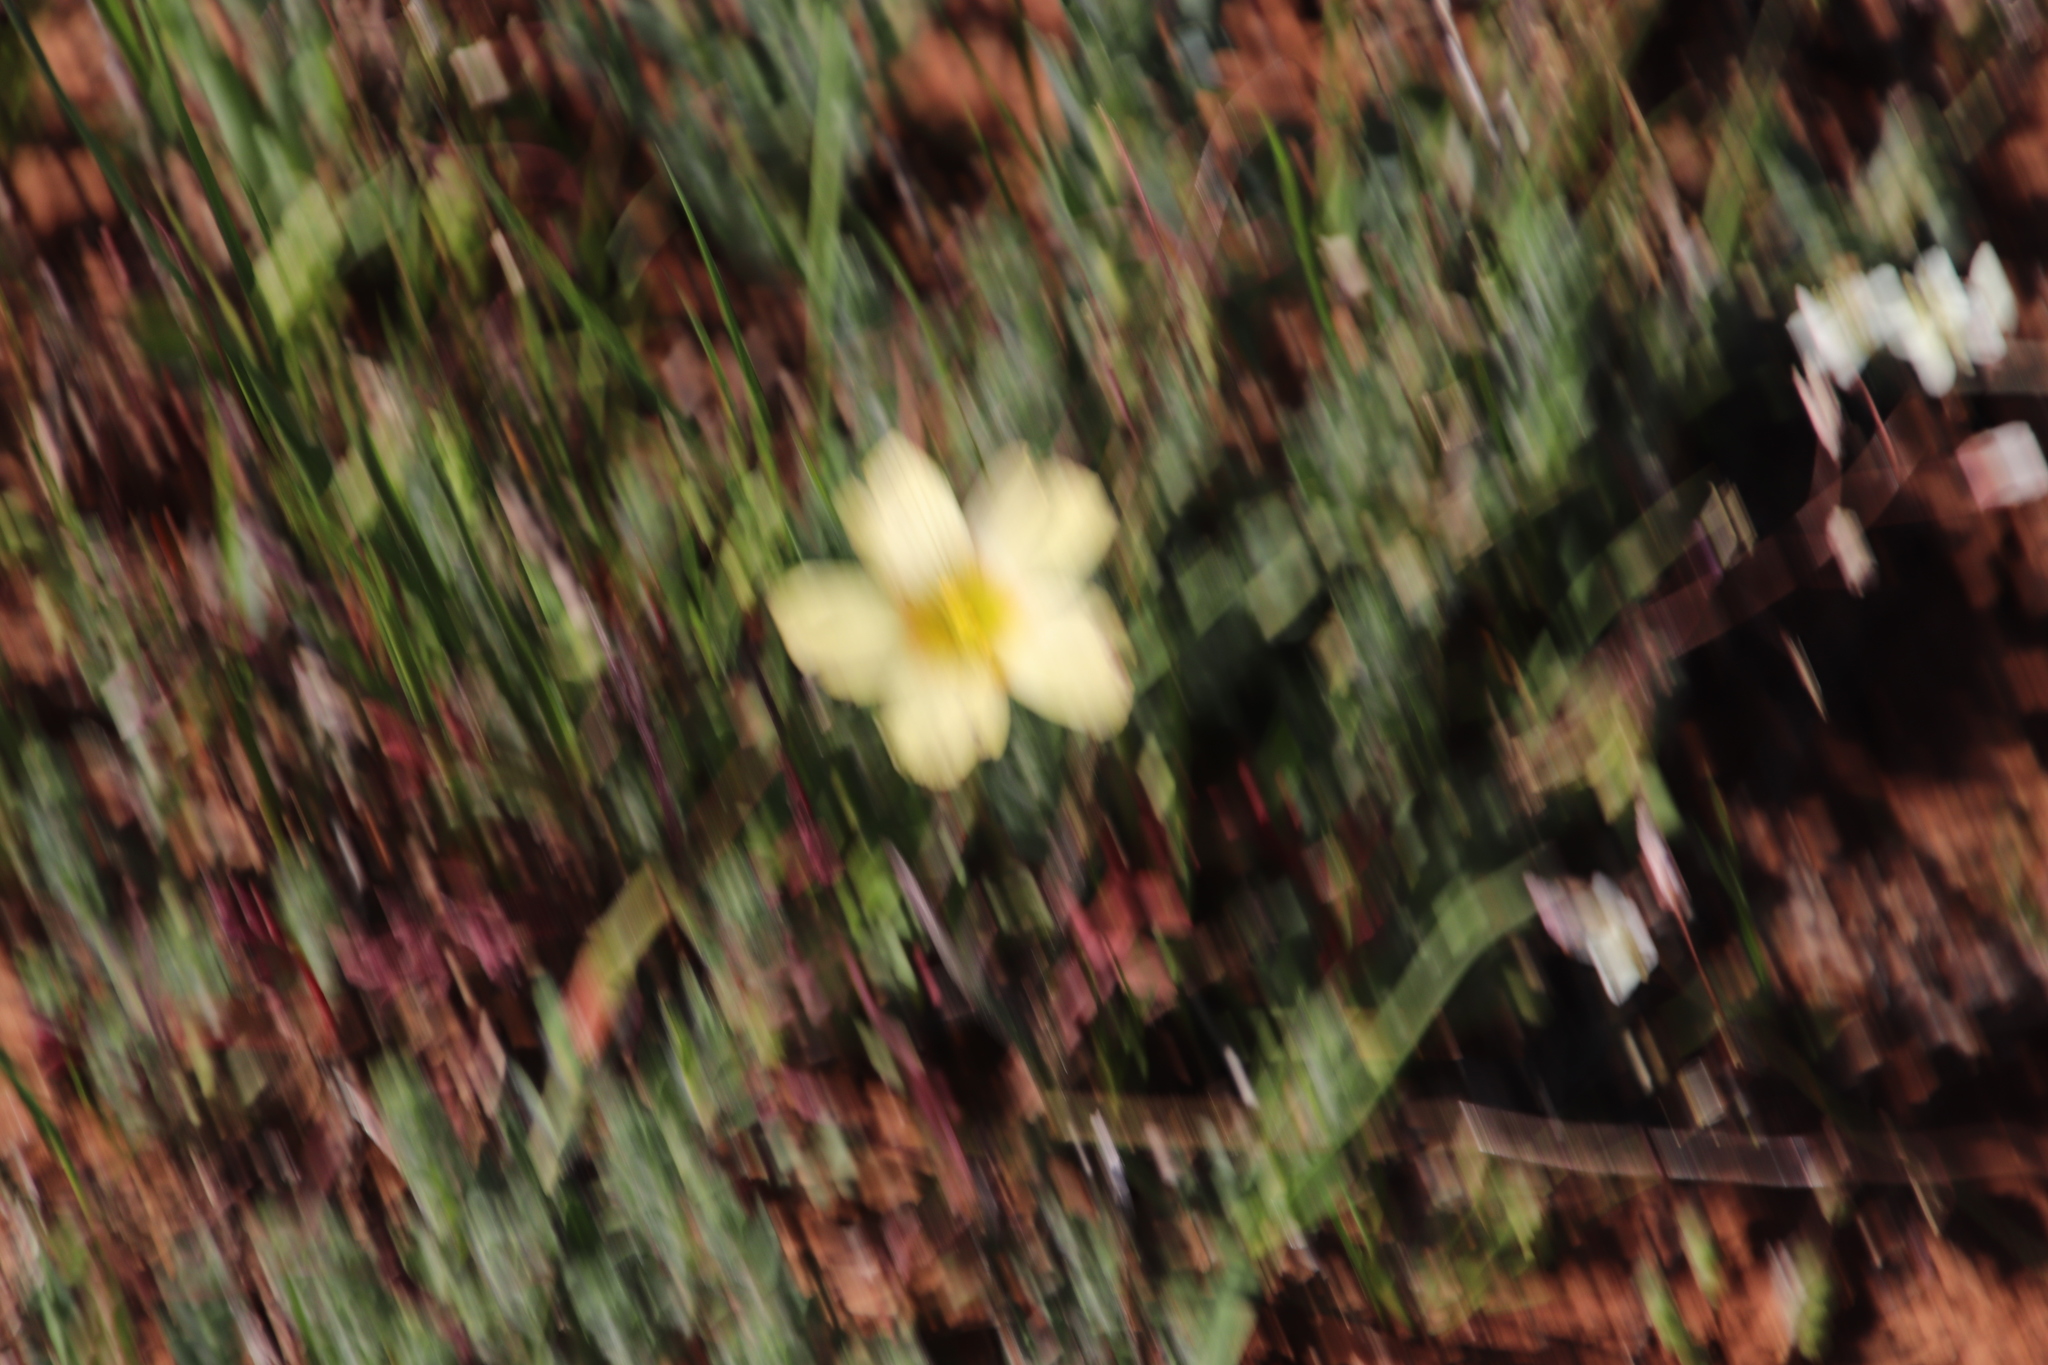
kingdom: Plantae
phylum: Tracheophyta
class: Magnoliopsida
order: Oxalidales
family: Oxalidaceae
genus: Oxalis
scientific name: Oxalis obtusa
